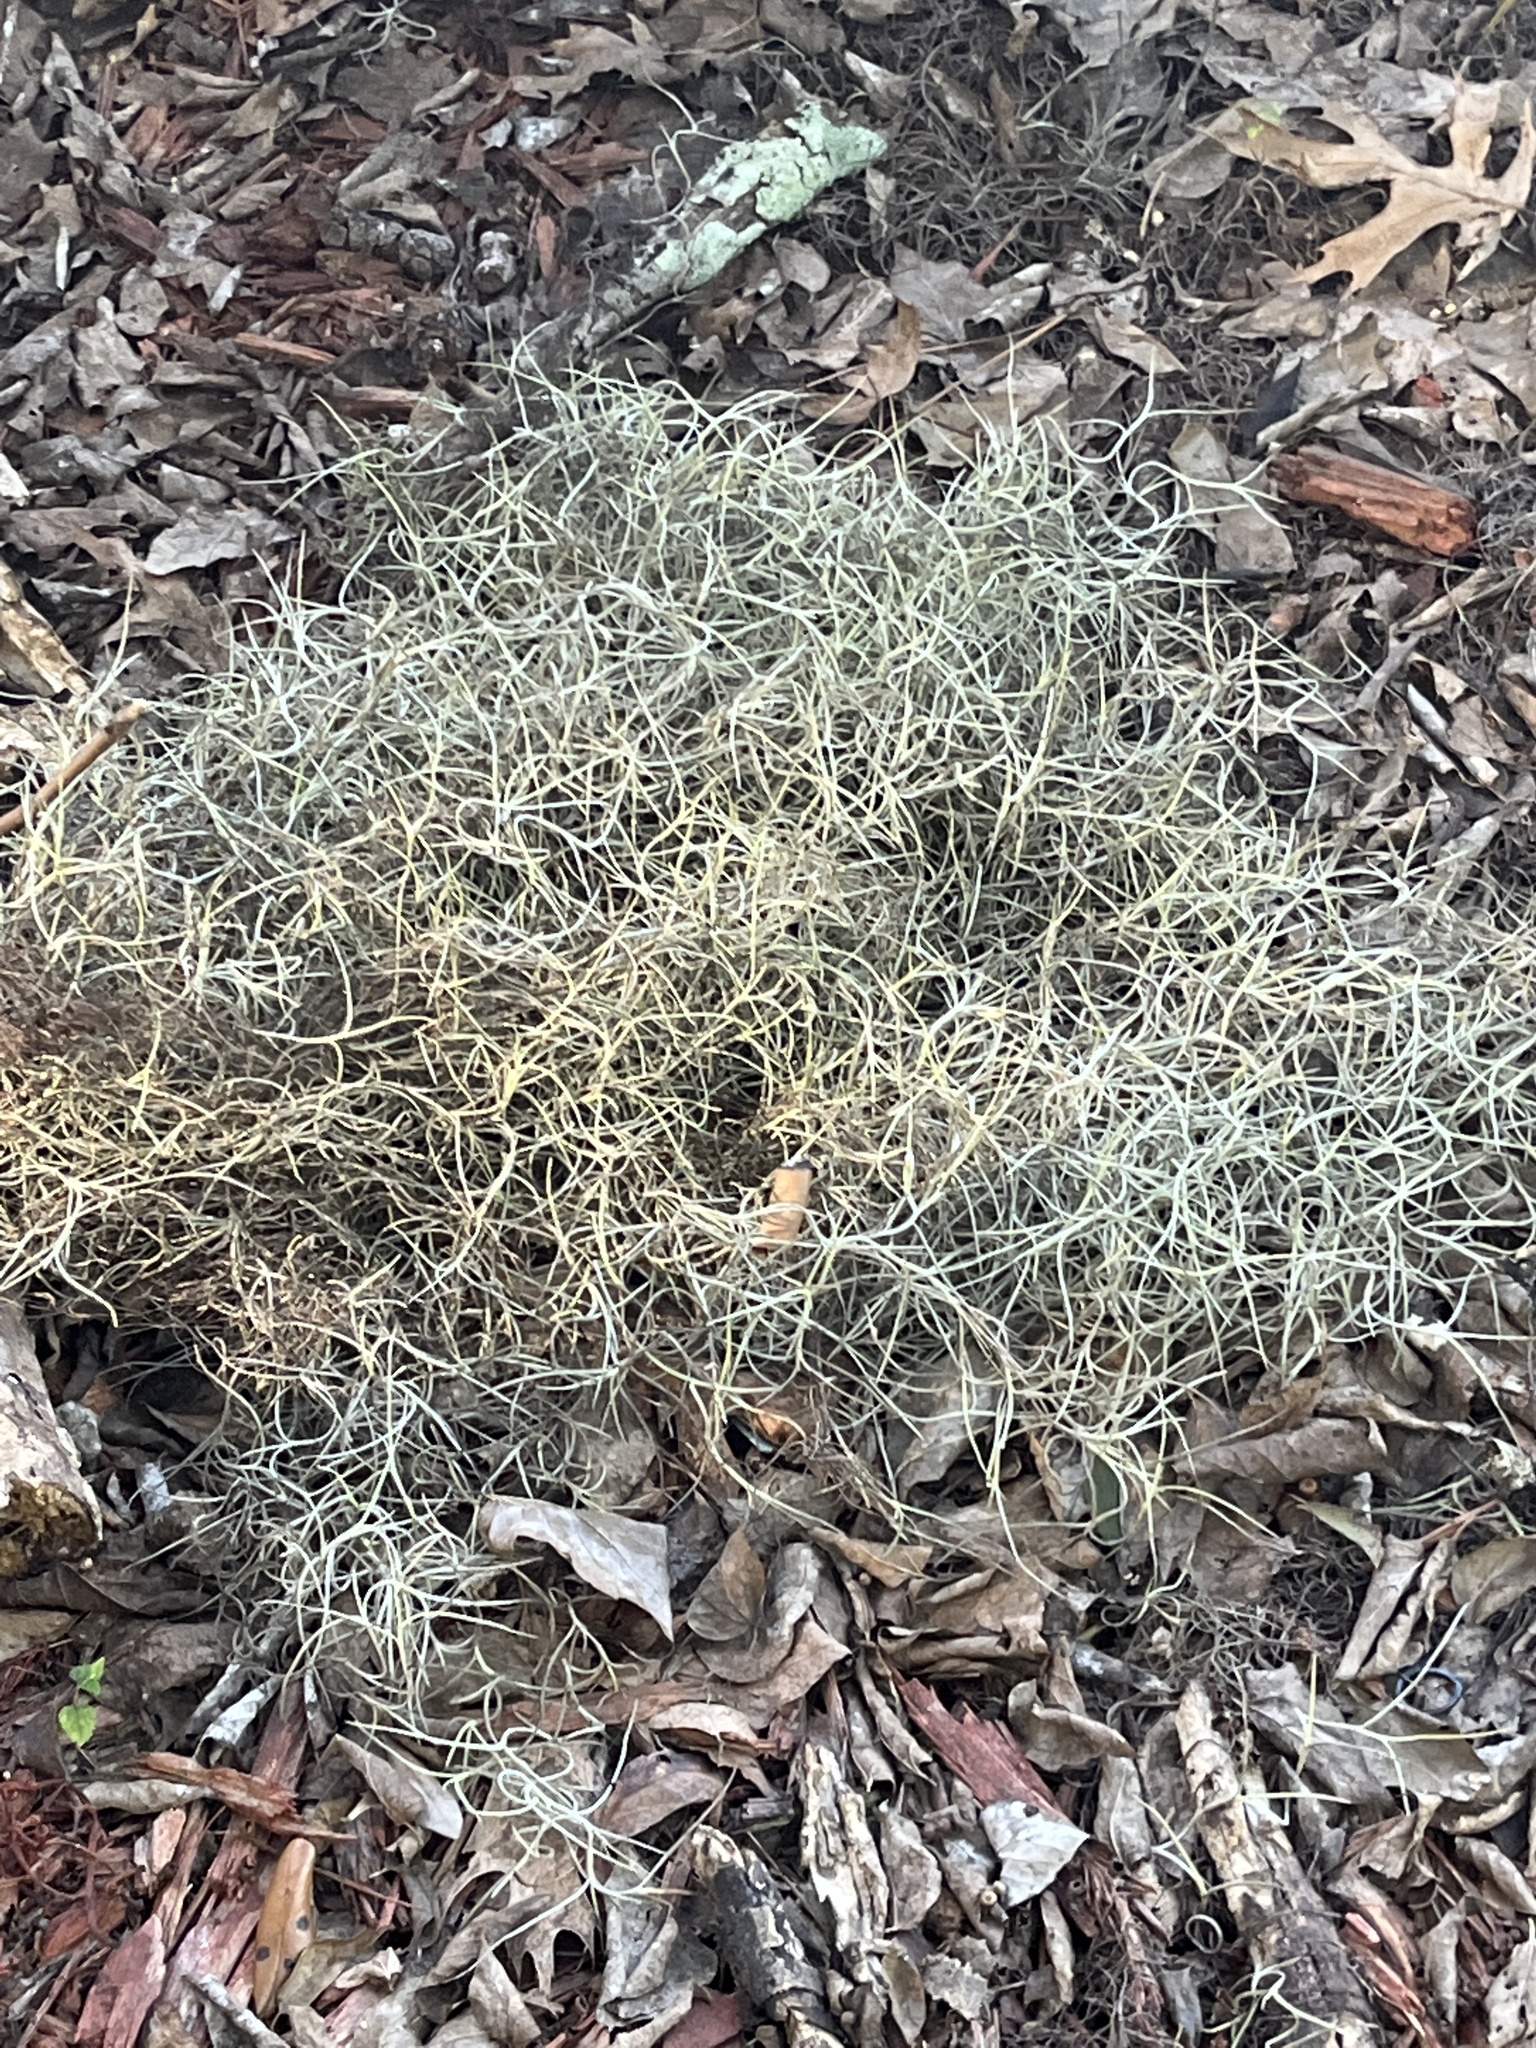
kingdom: Plantae
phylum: Tracheophyta
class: Liliopsida
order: Poales
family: Bromeliaceae
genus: Tillandsia
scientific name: Tillandsia usneoides
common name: Spanish moss
